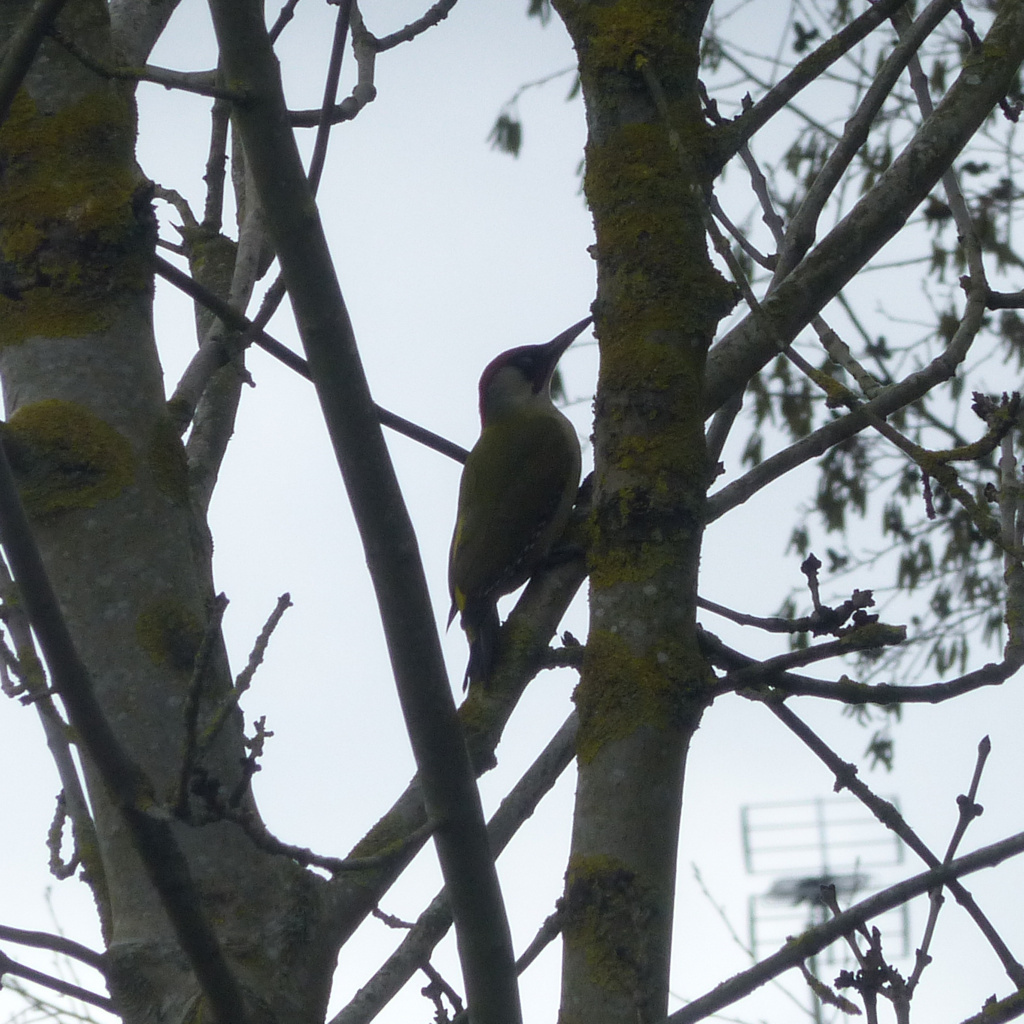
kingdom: Animalia
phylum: Chordata
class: Aves
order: Piciformes
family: Picidae
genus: Picus
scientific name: Picus viridis
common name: European green woodpecker
